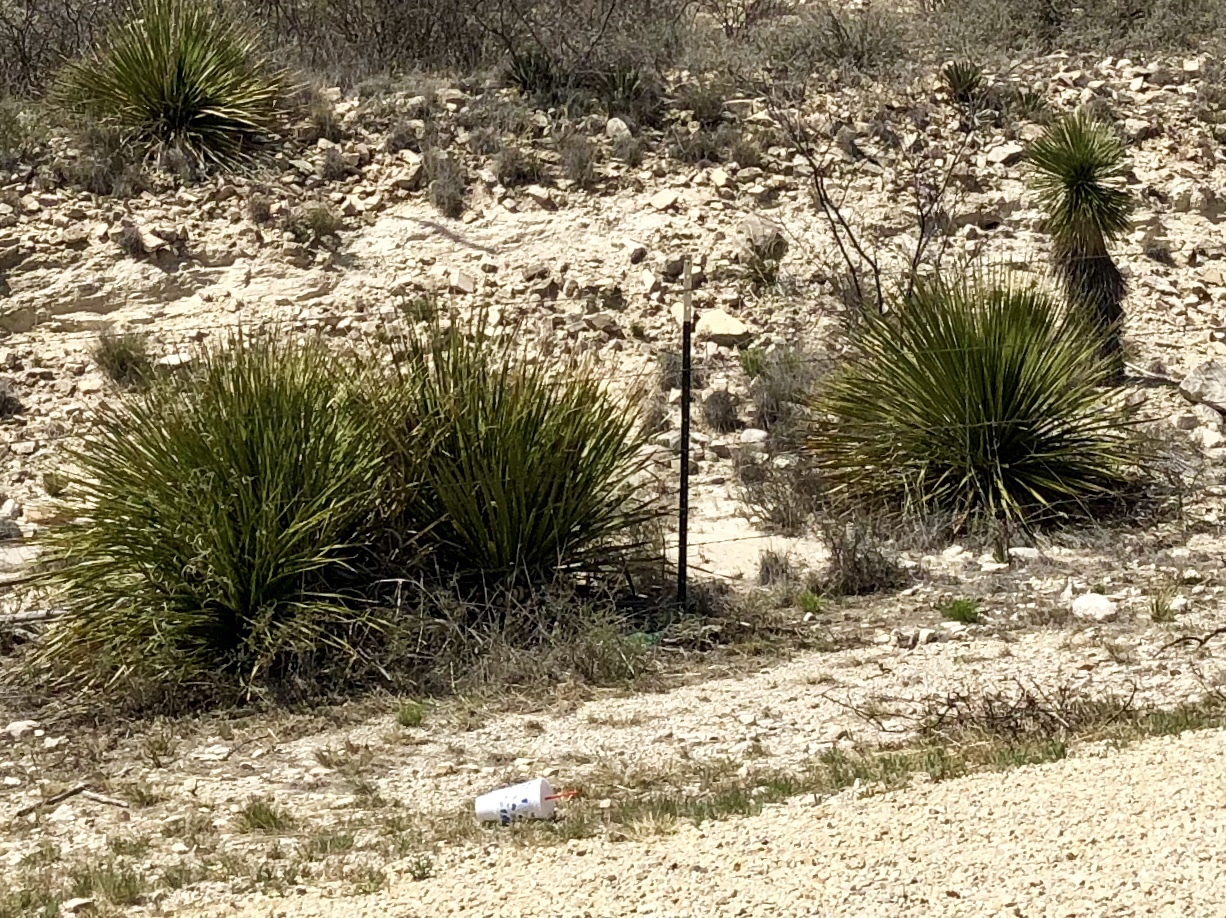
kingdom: Plantae
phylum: Tracheophyta
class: Liliopsida
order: Asparagales
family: Asparagaceae
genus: Dasylirion
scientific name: Dasylirion leiophyllum
